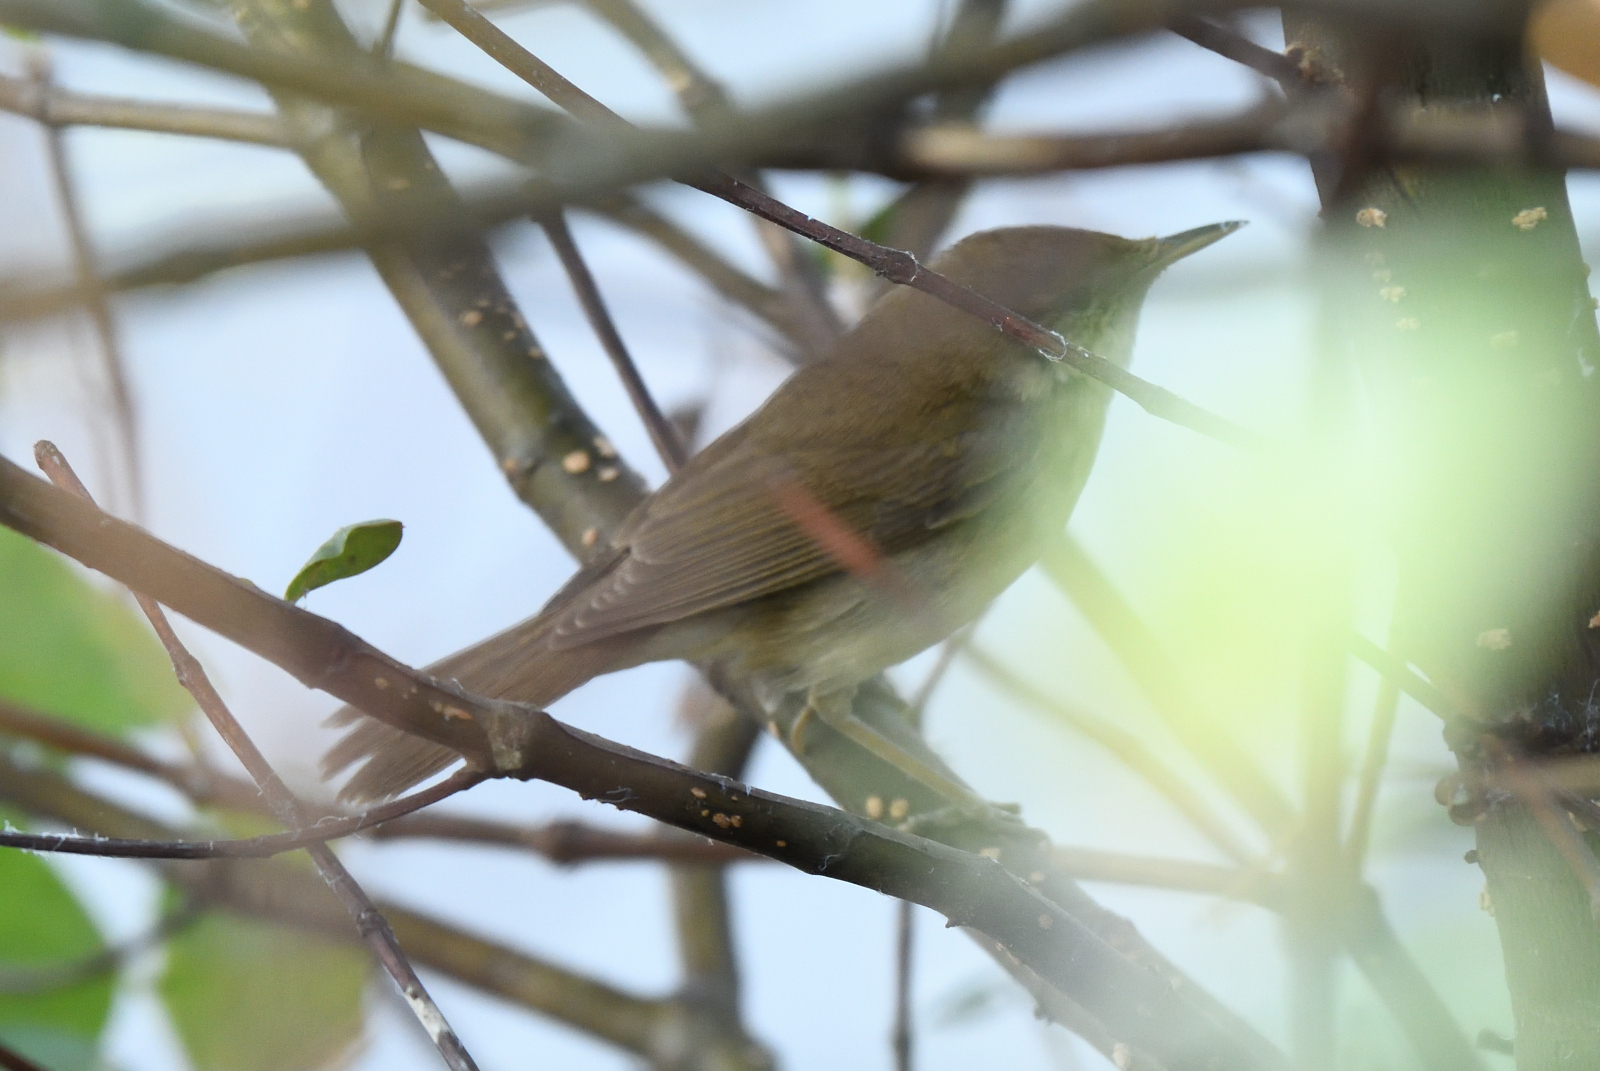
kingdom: Animalia
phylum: Chordata
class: Aves
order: Passeriformes
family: Acrocephalidae
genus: Acrocephalus
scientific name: Acrocephalus dumetorum
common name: Blyth's reed warbler
